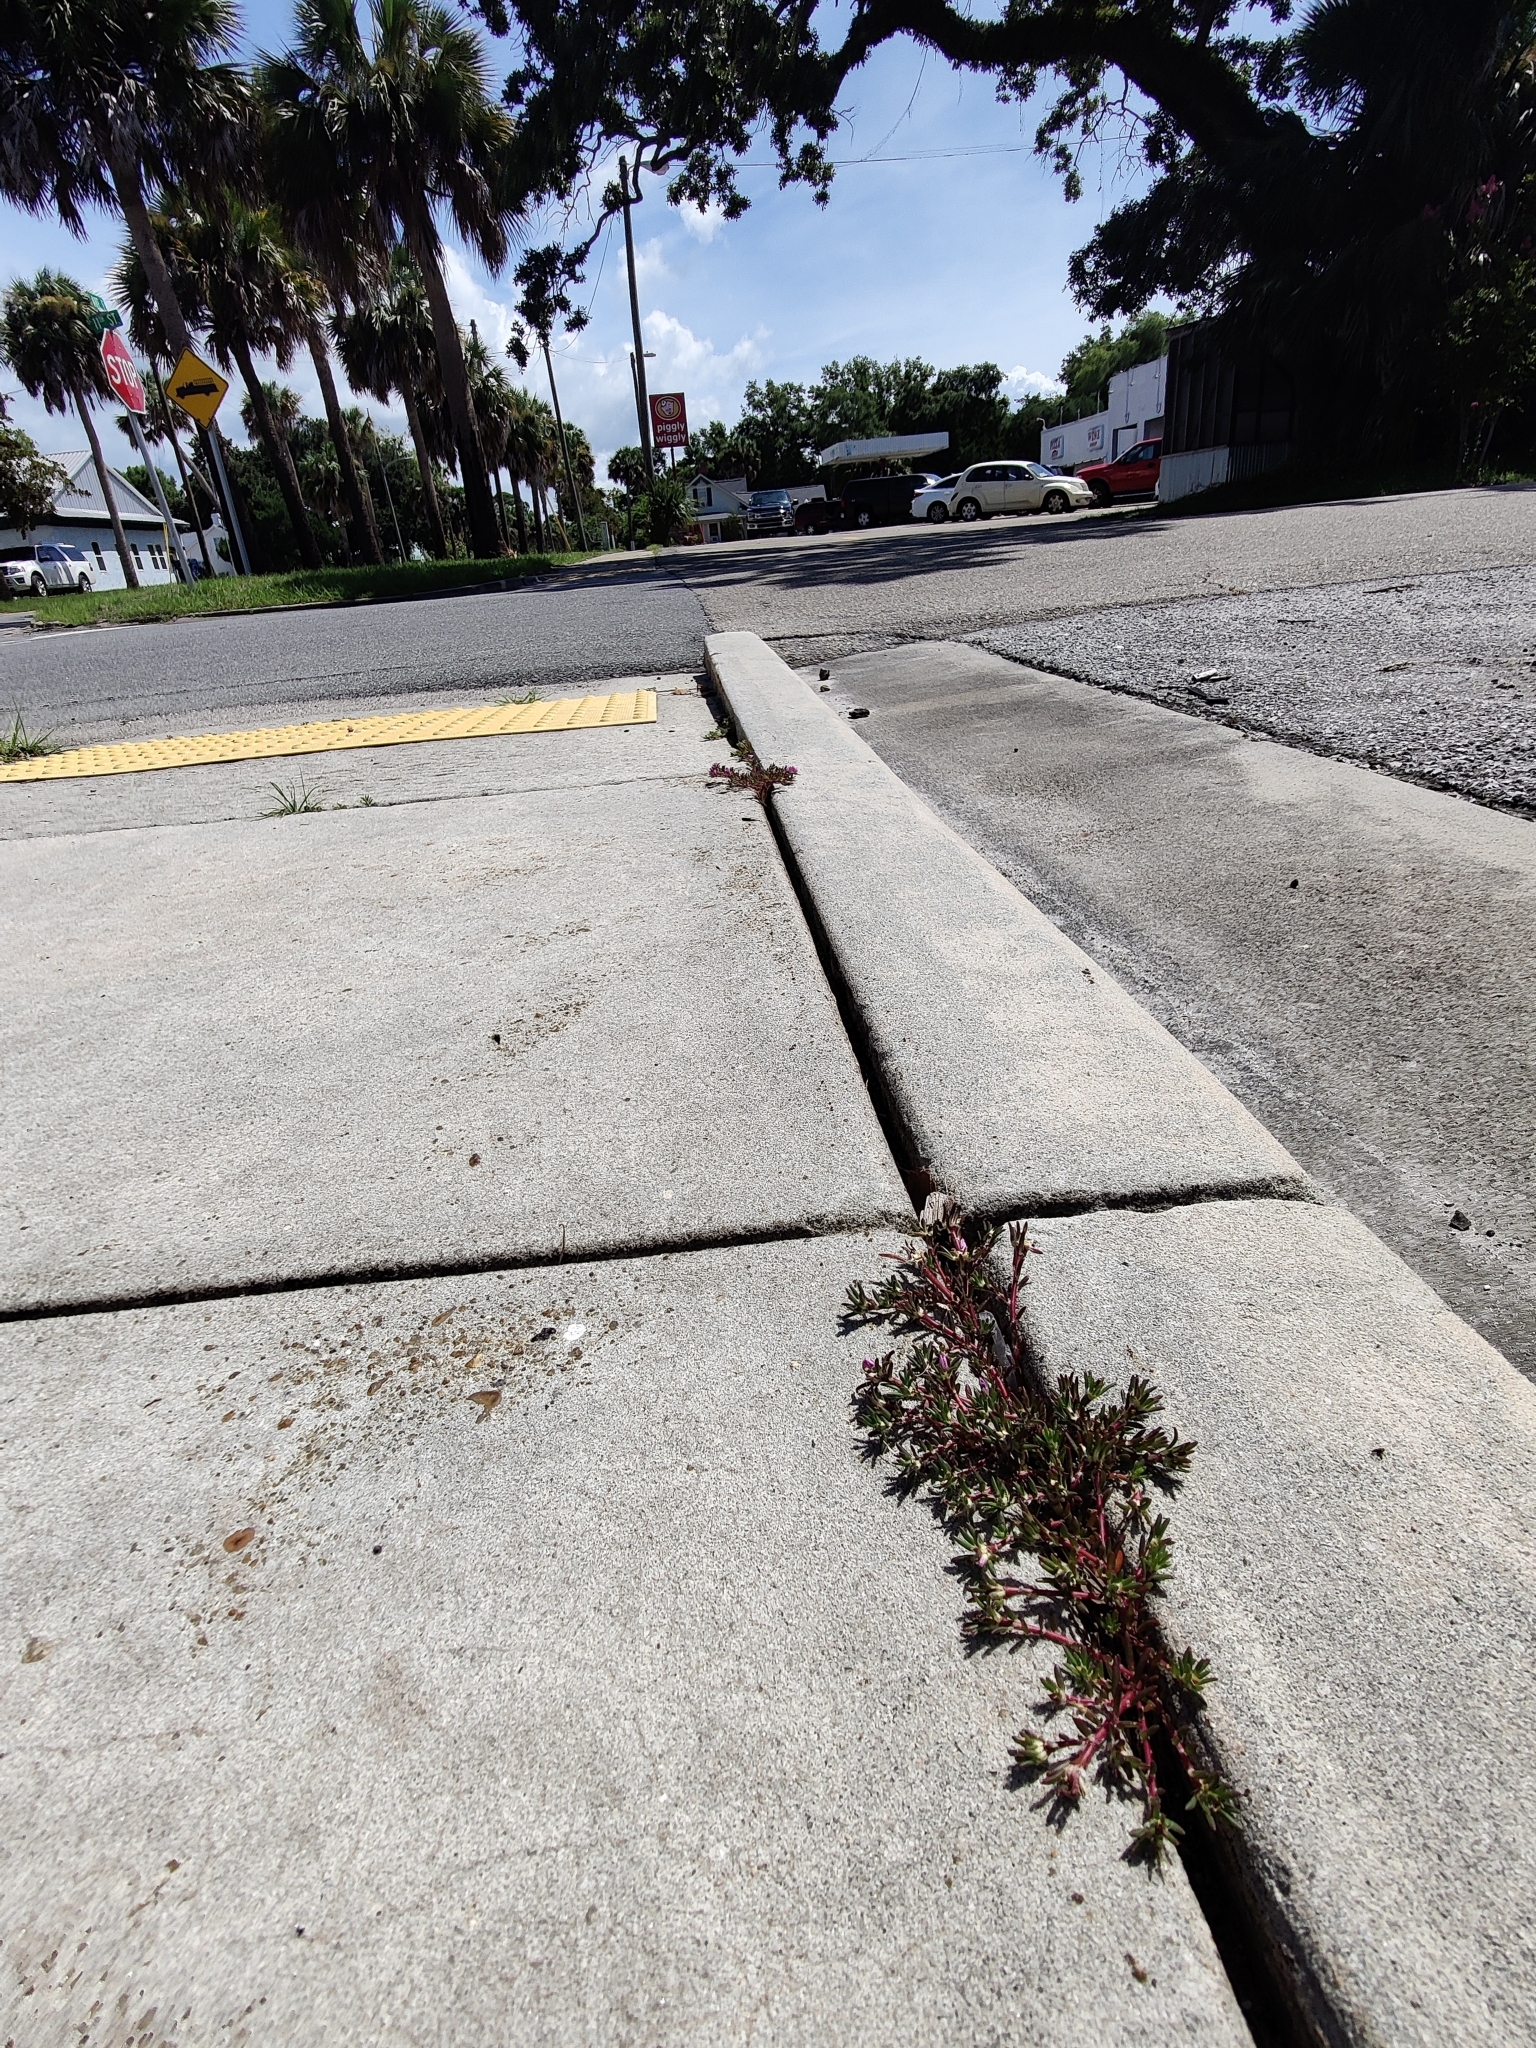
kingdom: Plantae
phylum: Tracheophyta
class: Magnoliopsida
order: Caryophyllales
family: Portulacaceae
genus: Portulaca
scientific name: Portulaca oleracea
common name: Common purslane
